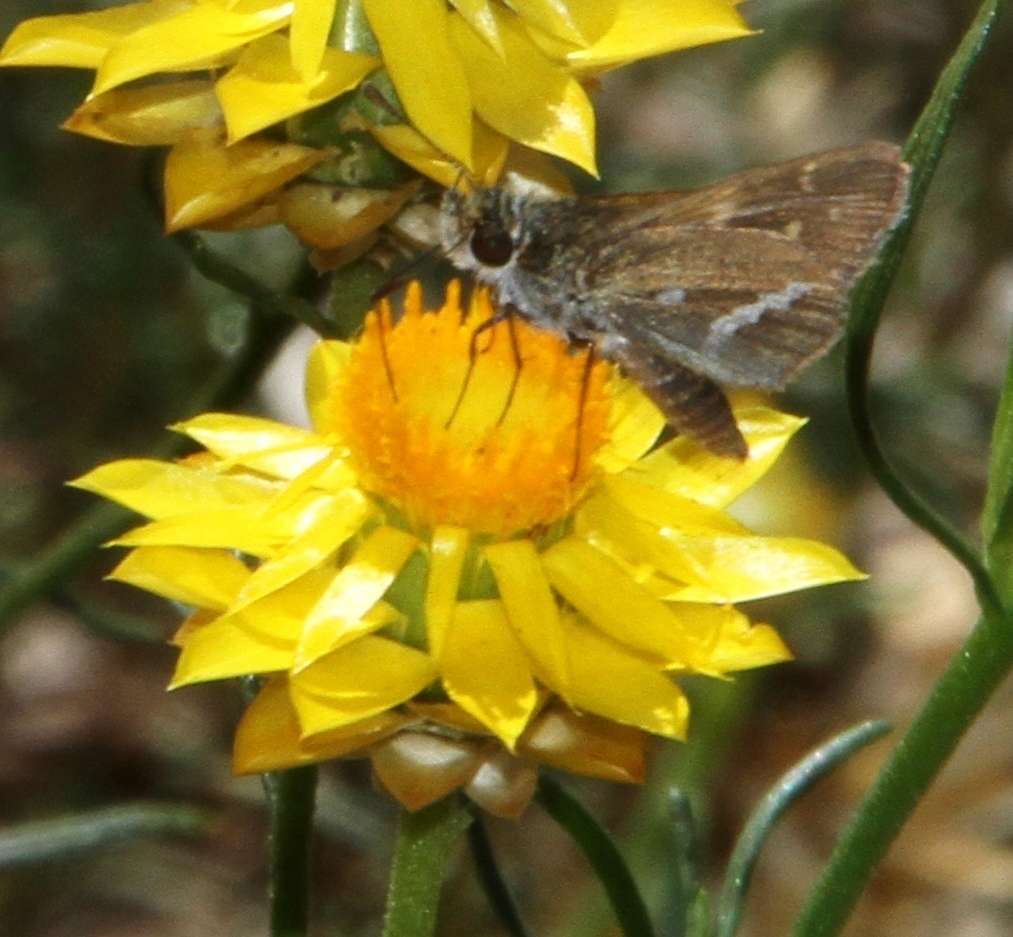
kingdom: Animalia
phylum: Arthropoda
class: Insecta
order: Lepidoptera
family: Hesperiidae
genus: Taractrocera
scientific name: Taractrocera papyria
